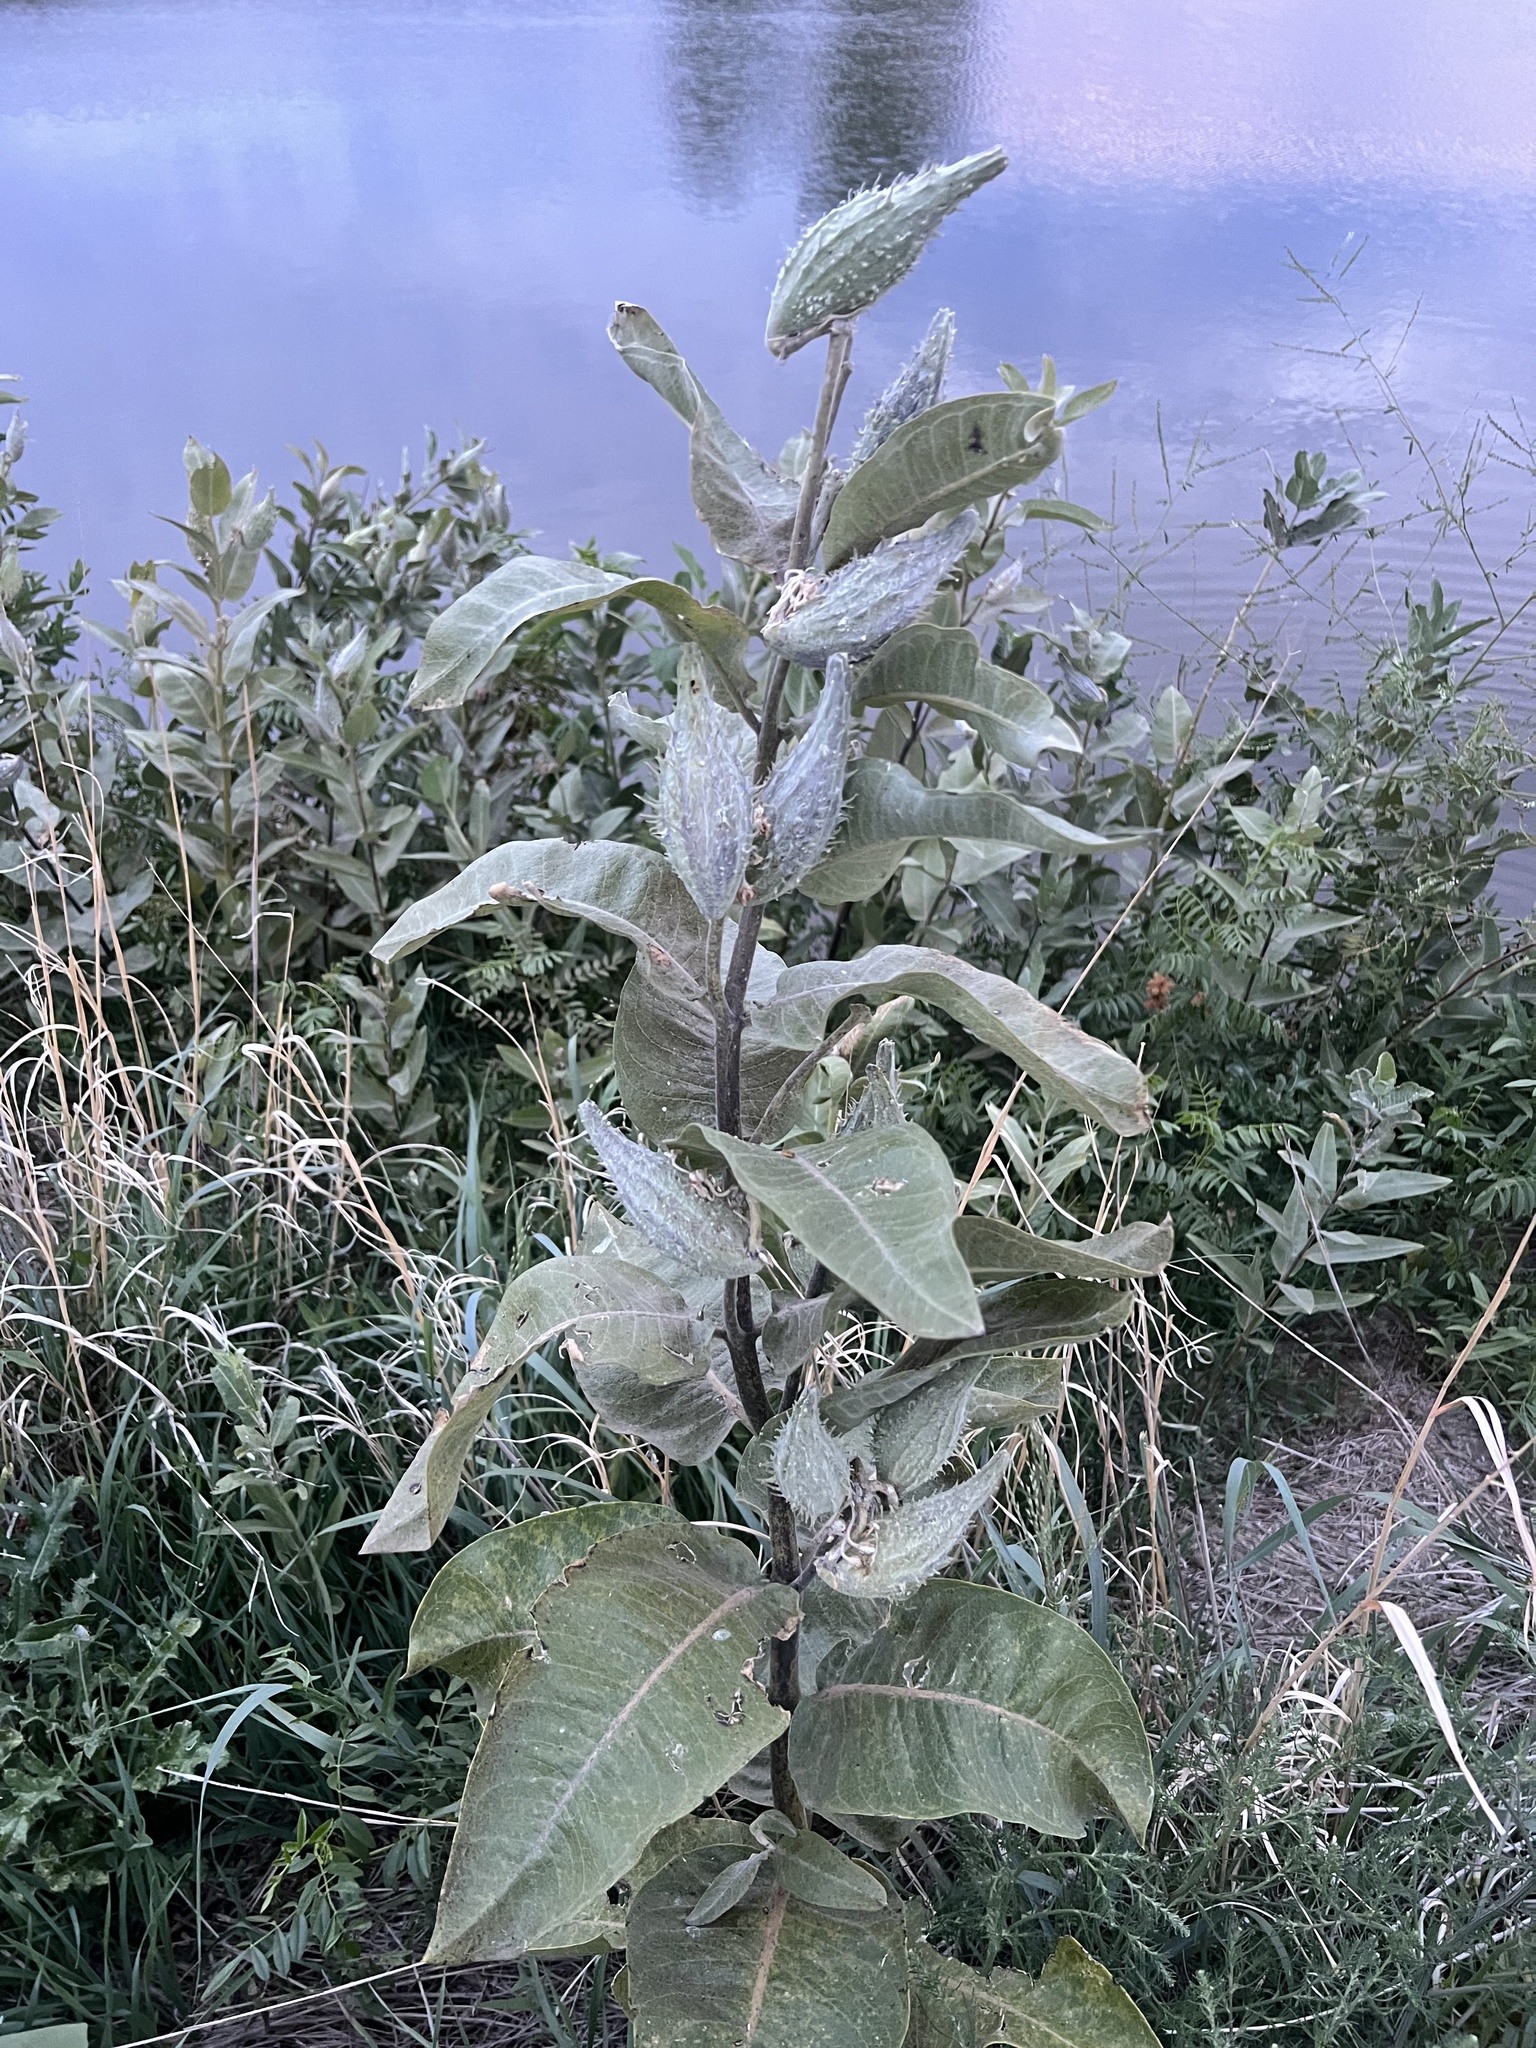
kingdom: Plantae
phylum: Tracheophyta
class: Magnoliopsida
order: Gentianales
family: Apocynaceae
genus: Asclepias
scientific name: Asclepias speciosa
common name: Showy milkweed
